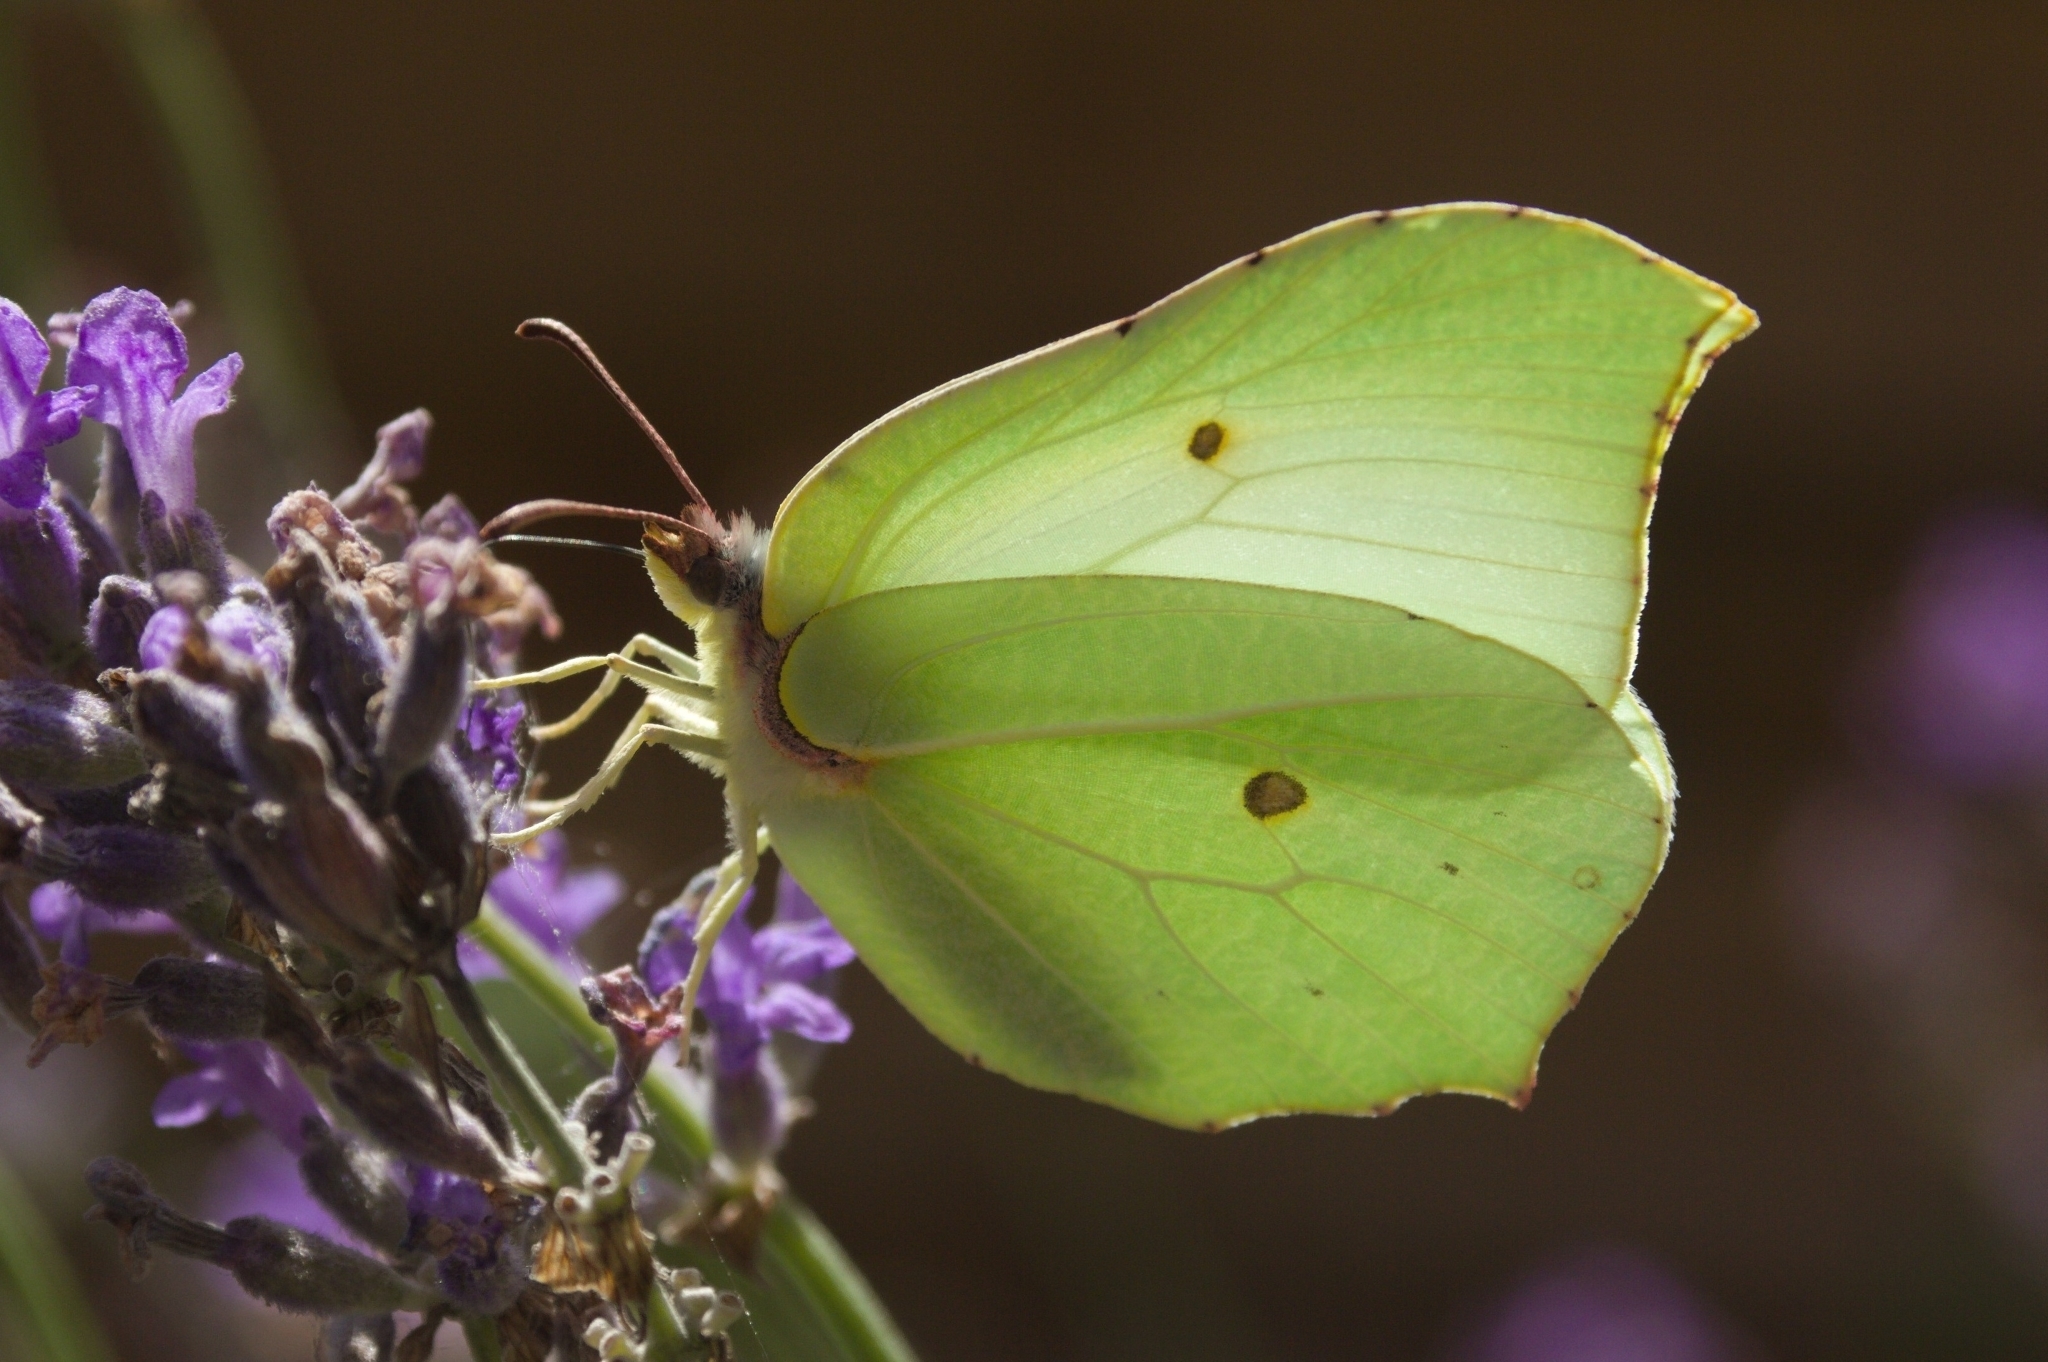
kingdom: Animalia
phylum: Arthropoda
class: Insecta
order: Lepidoptera
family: Pieridae
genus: Gonepteryx
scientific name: Gonepteryx rhamni
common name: Brimstone
